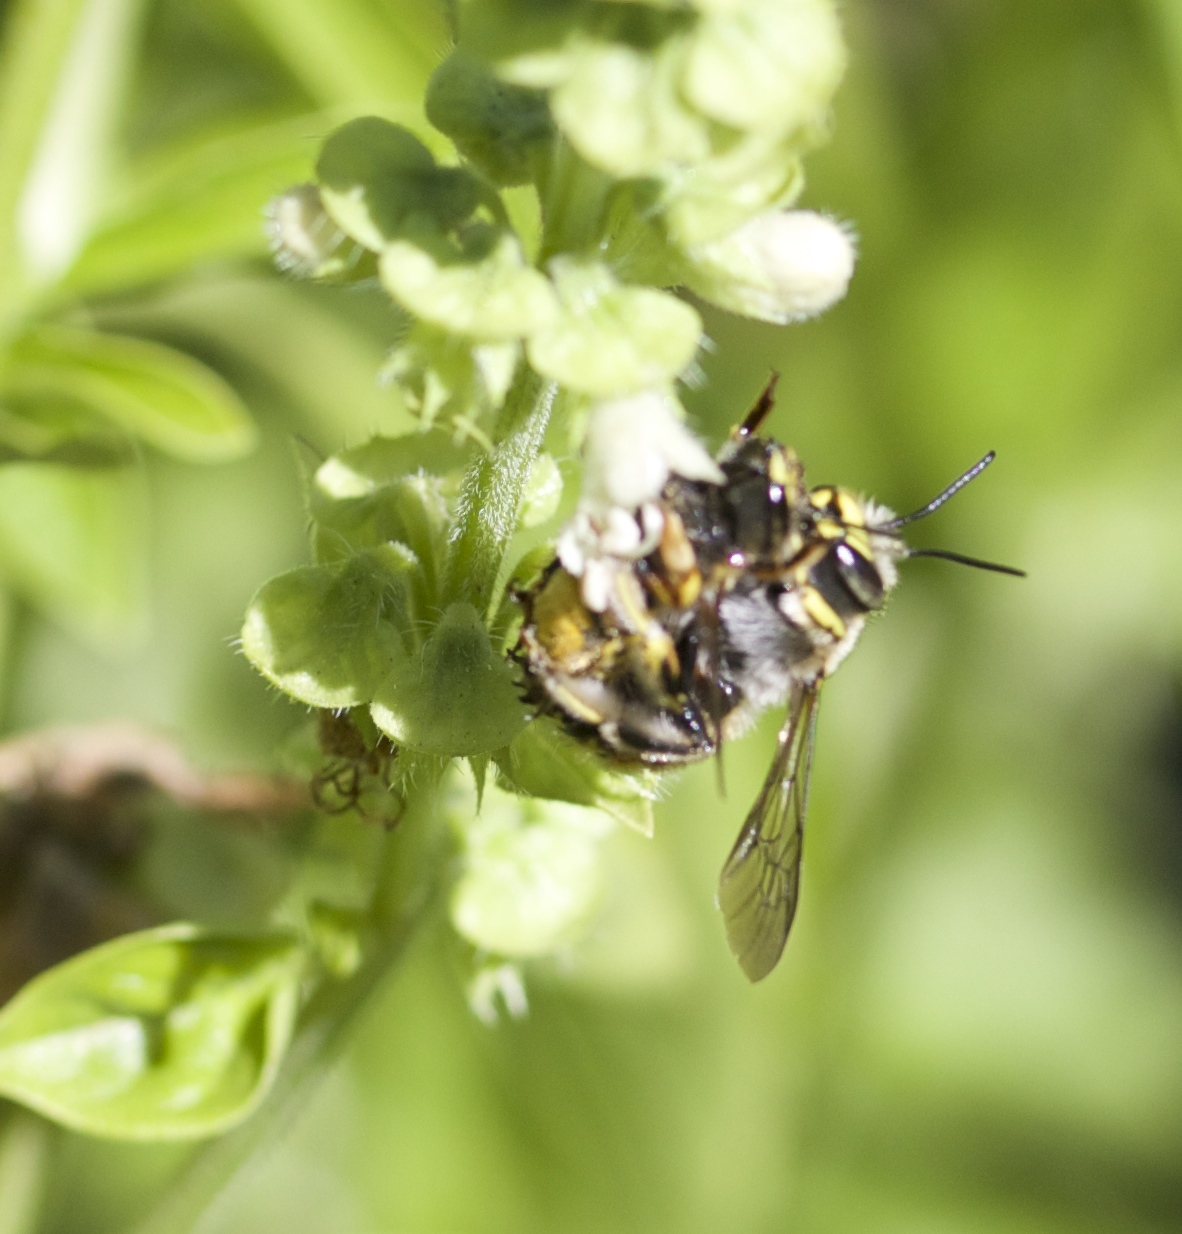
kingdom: Animalia
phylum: Arthropoda
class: Insecta
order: Hymenoptera
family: Megachilidae
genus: Anthidium
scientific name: Anthidium manicatum
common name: Wool carder bee
